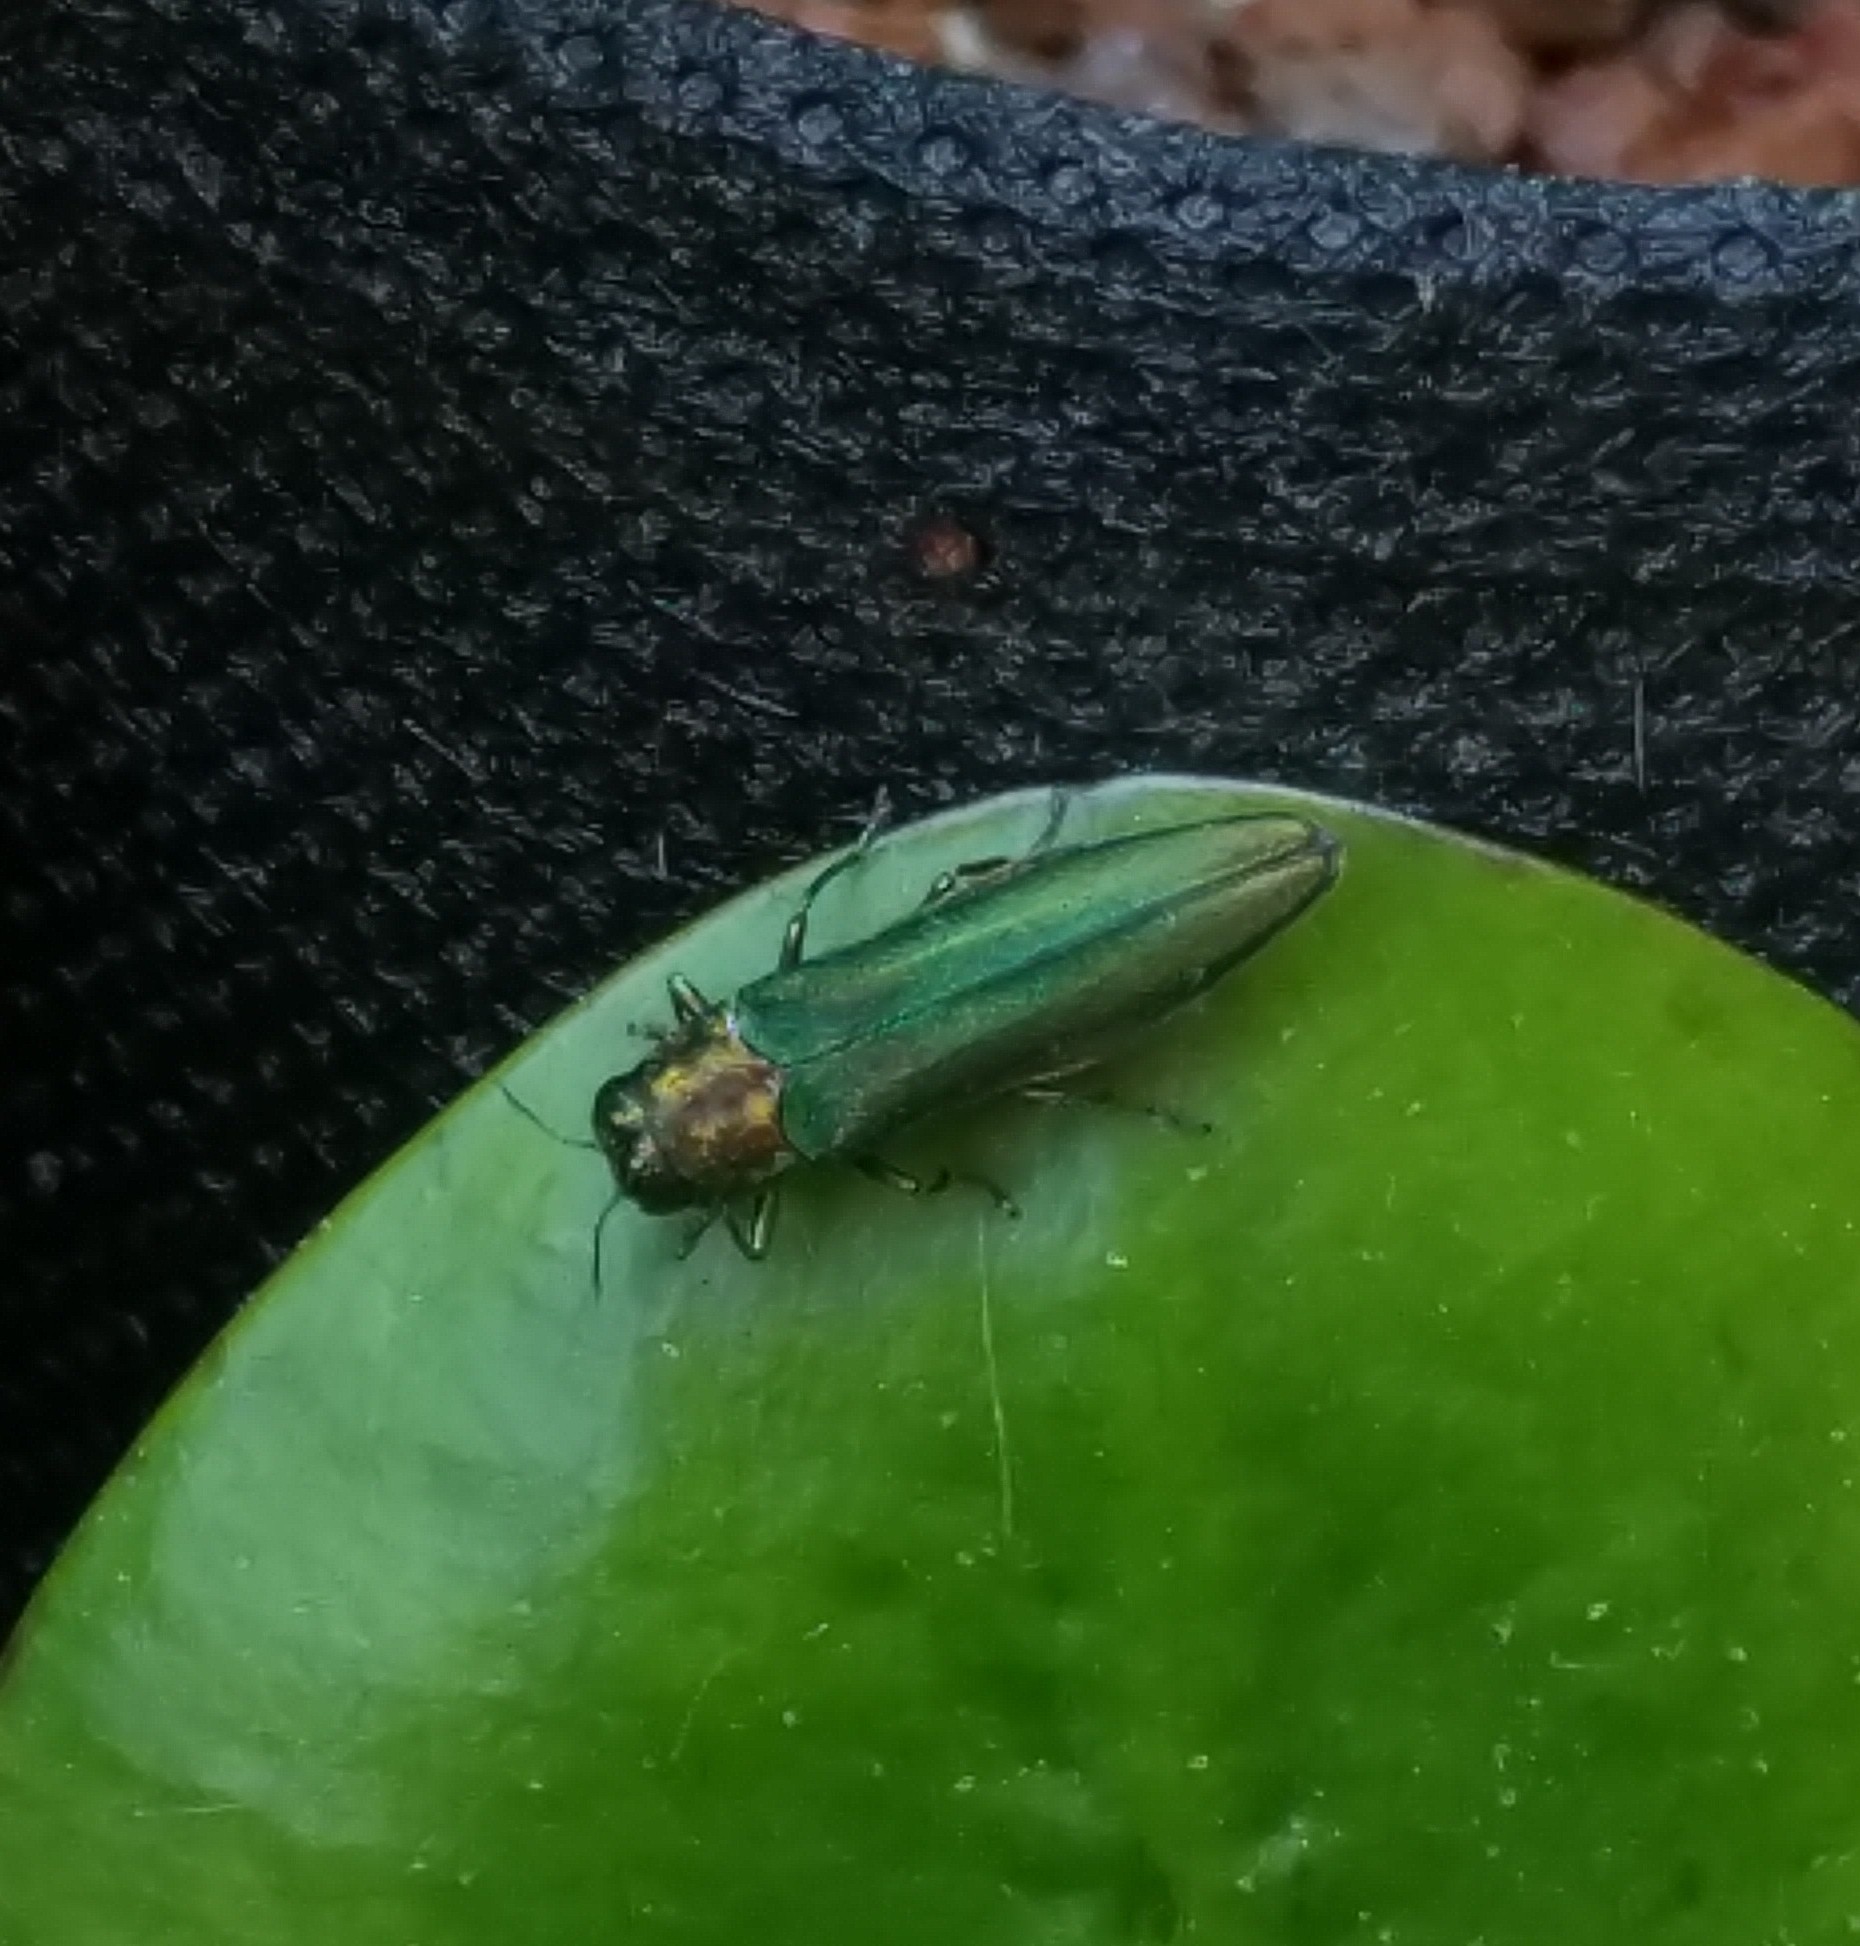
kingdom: Animalia
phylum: Arthropoda
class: Insecta
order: Coleoptera
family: Buprestidae
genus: Agrilus
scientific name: Agrilus planipennis
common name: Emerald ash borer
